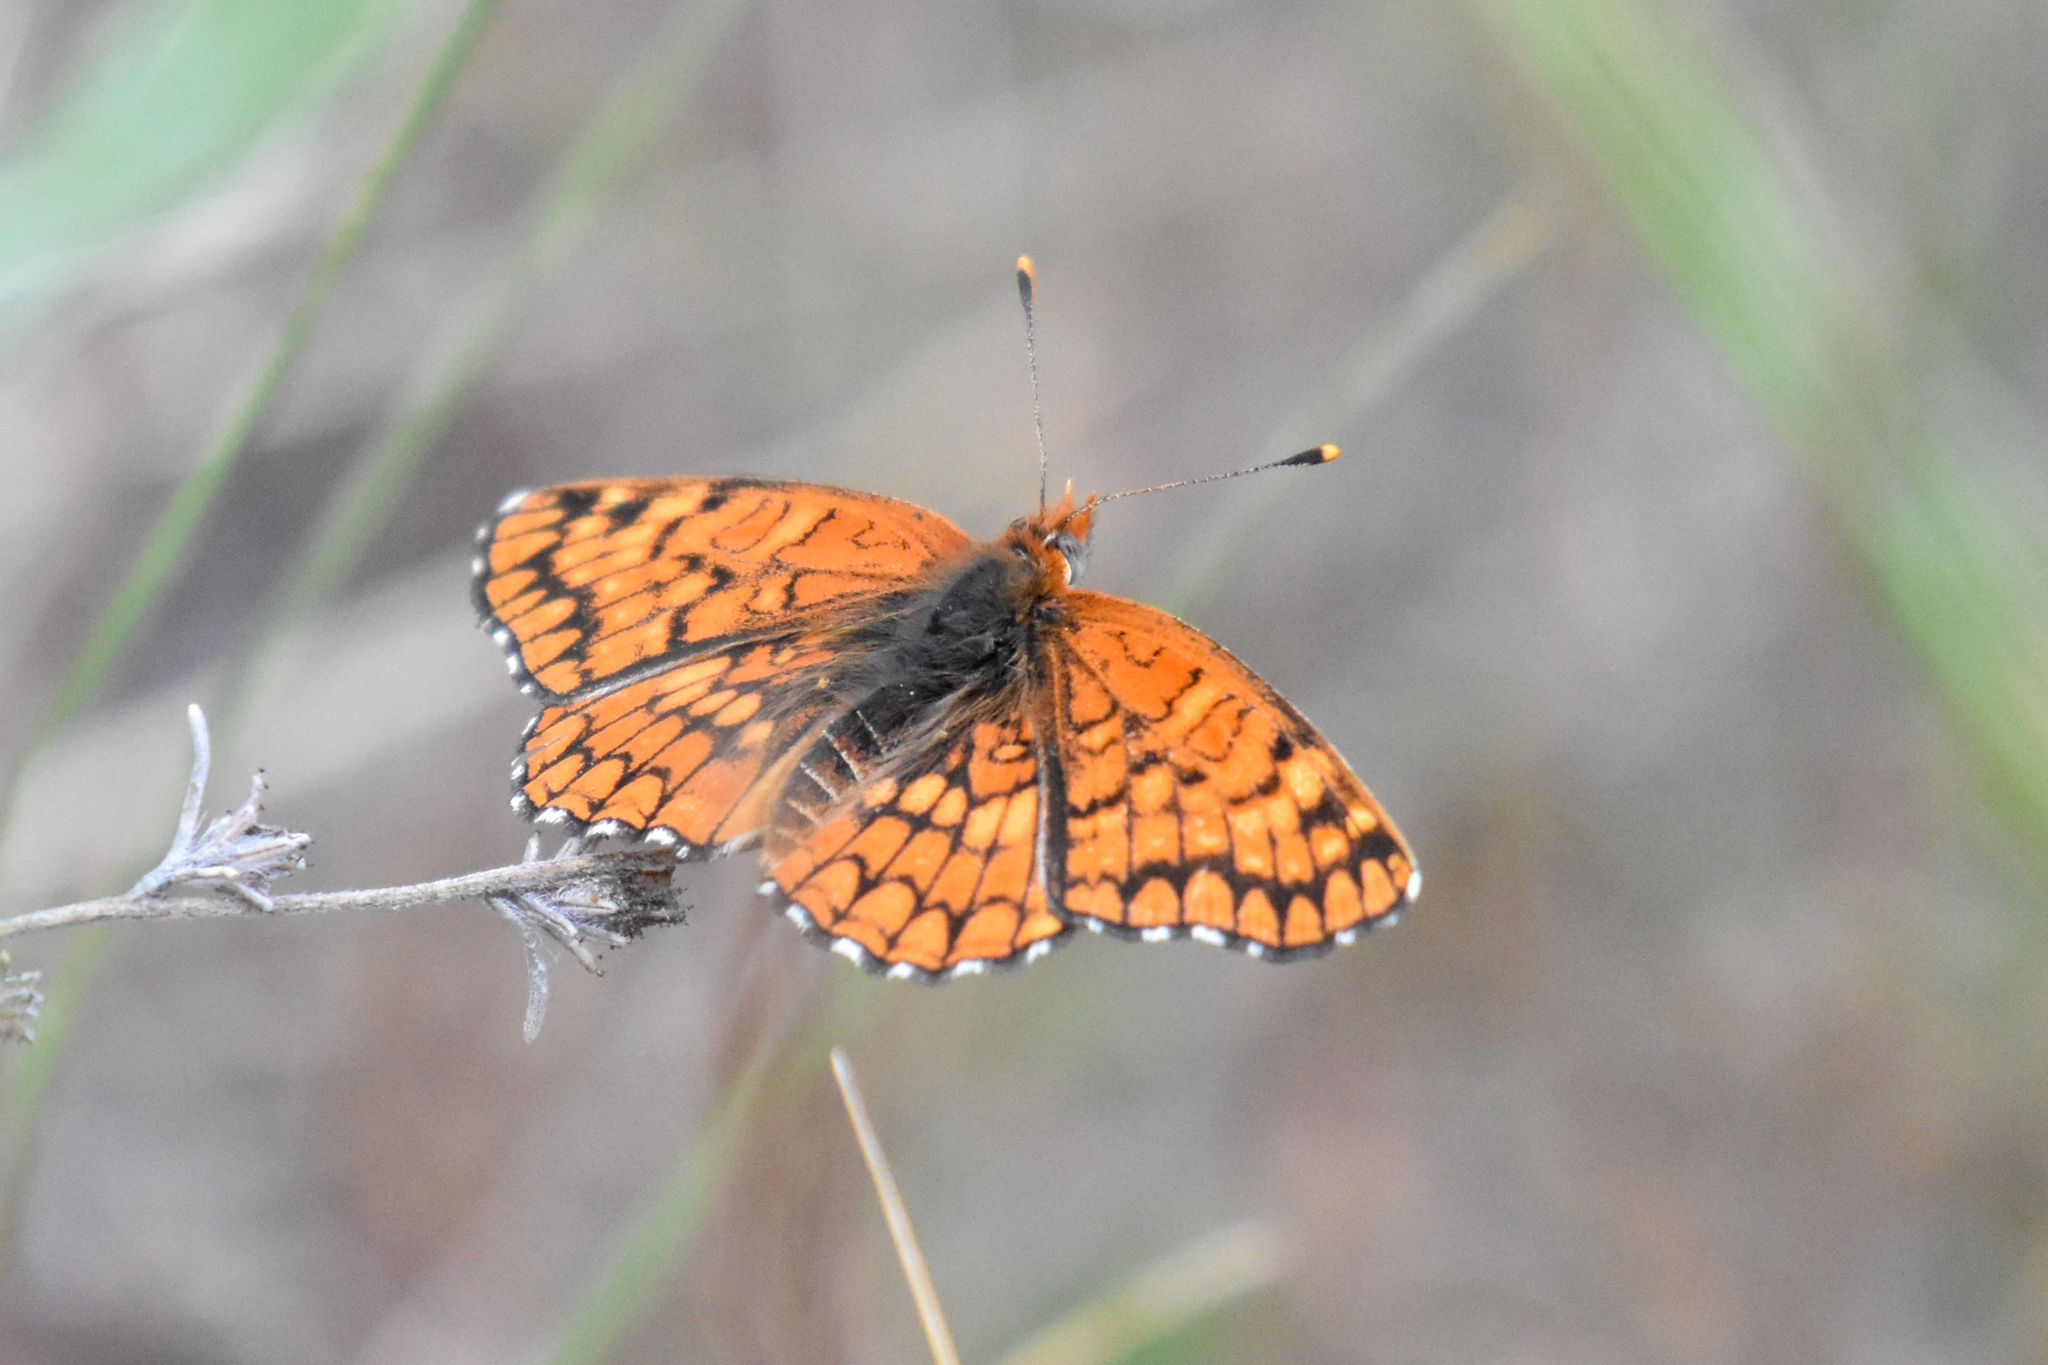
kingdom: Animalia
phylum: Arthropoda
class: Insecta
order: Lepidoptera
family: Nymphalidae
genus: Chlosyne
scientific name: Chlosyne palla
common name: Northern checkerspot
